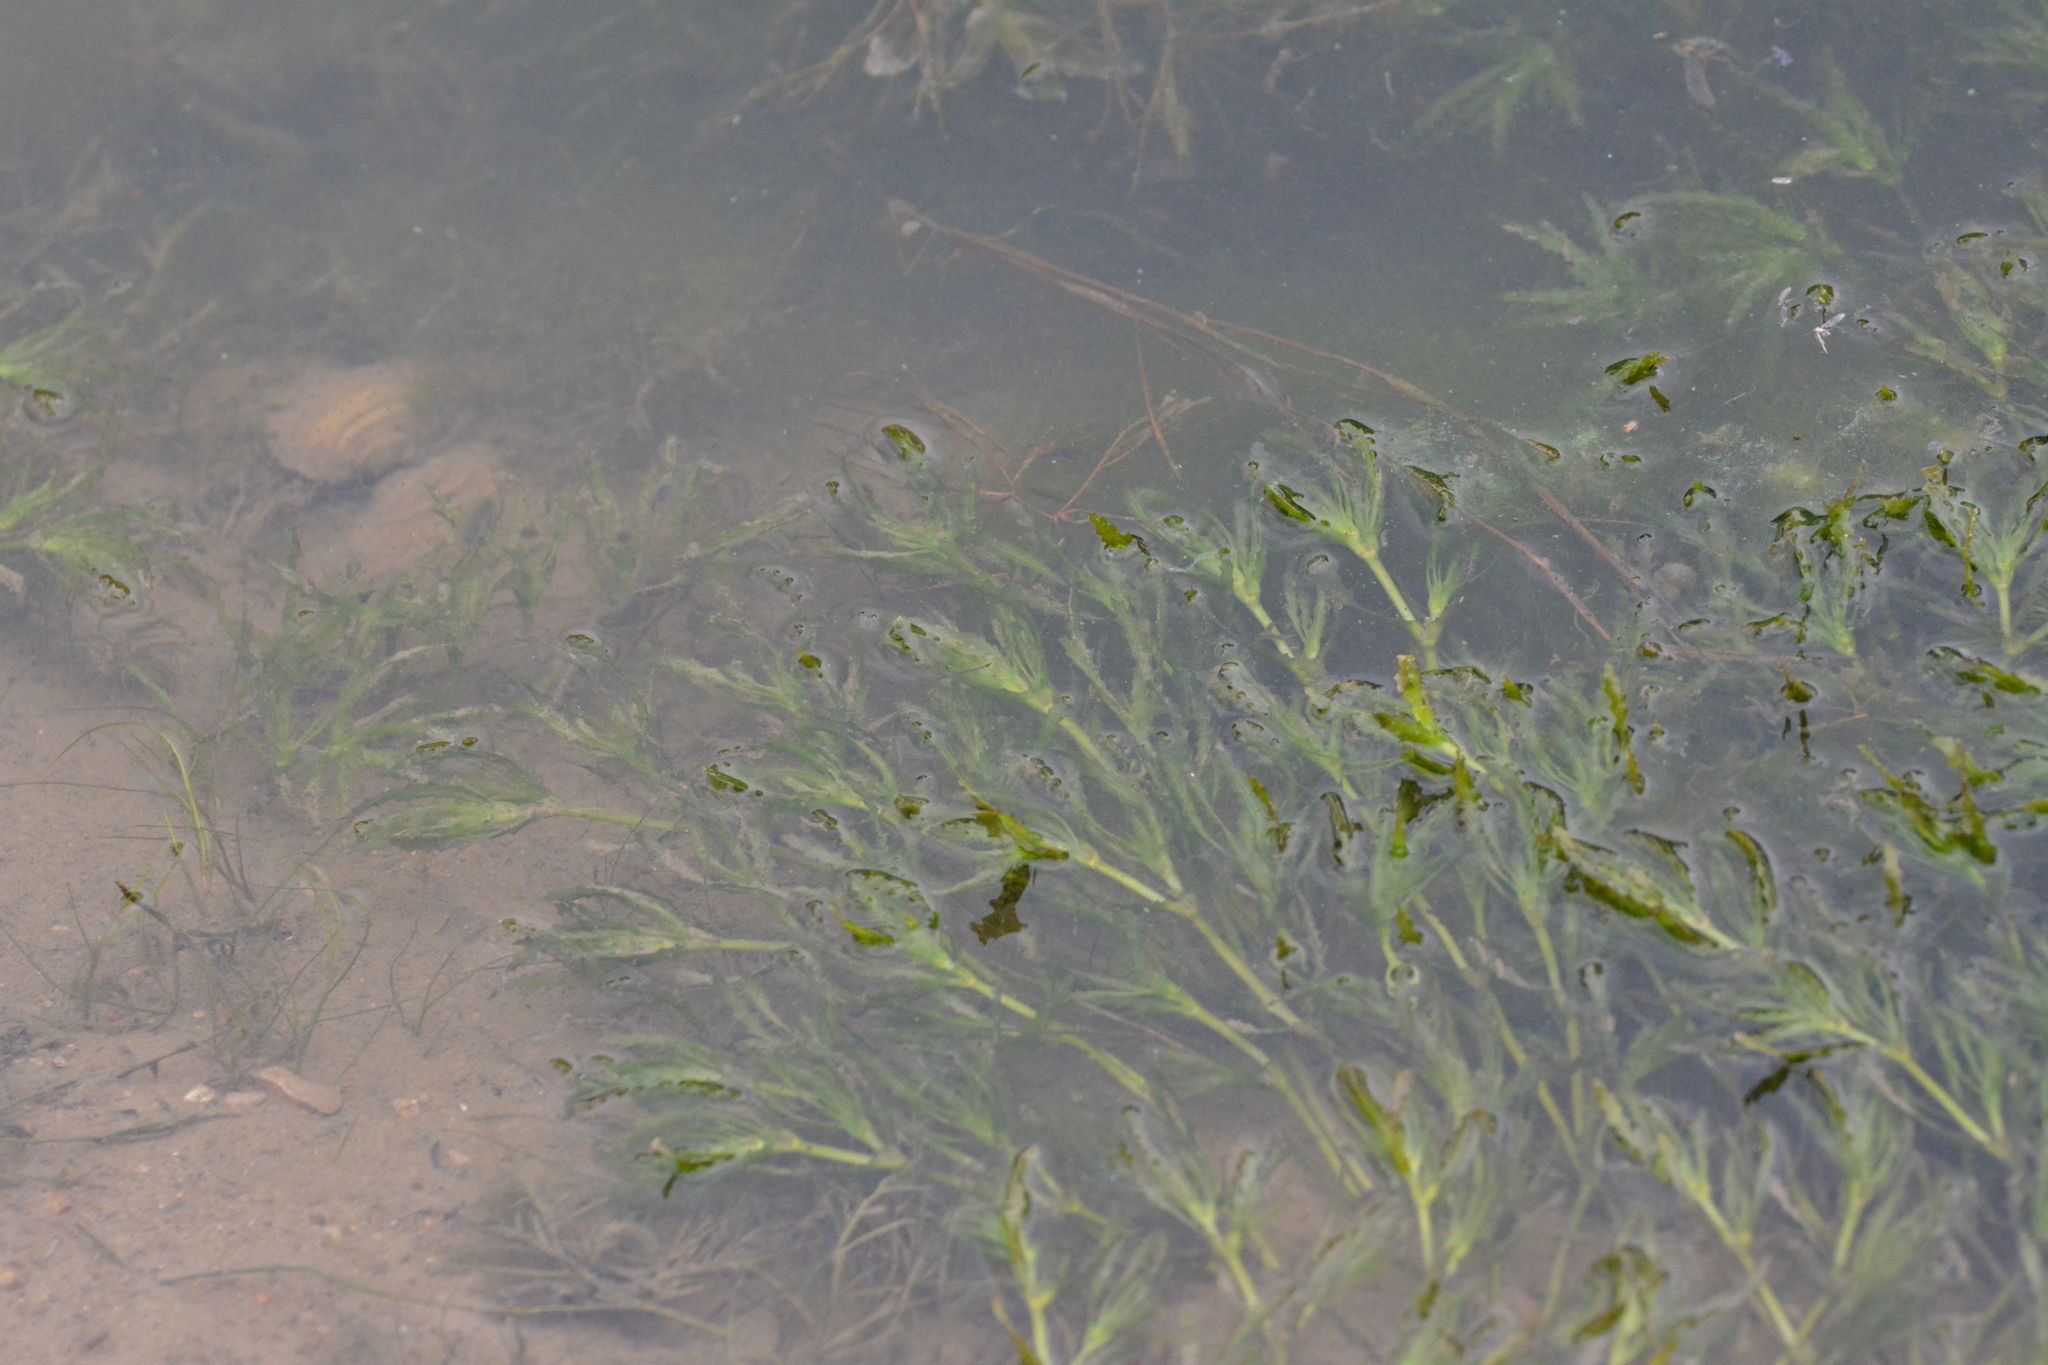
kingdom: Plantae
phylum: Tracheophyta
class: Liliopsida
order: Alismatales
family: Potamogetonaceae
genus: Potamogeton
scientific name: Potamogeton crispus
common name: Curled pondweed
